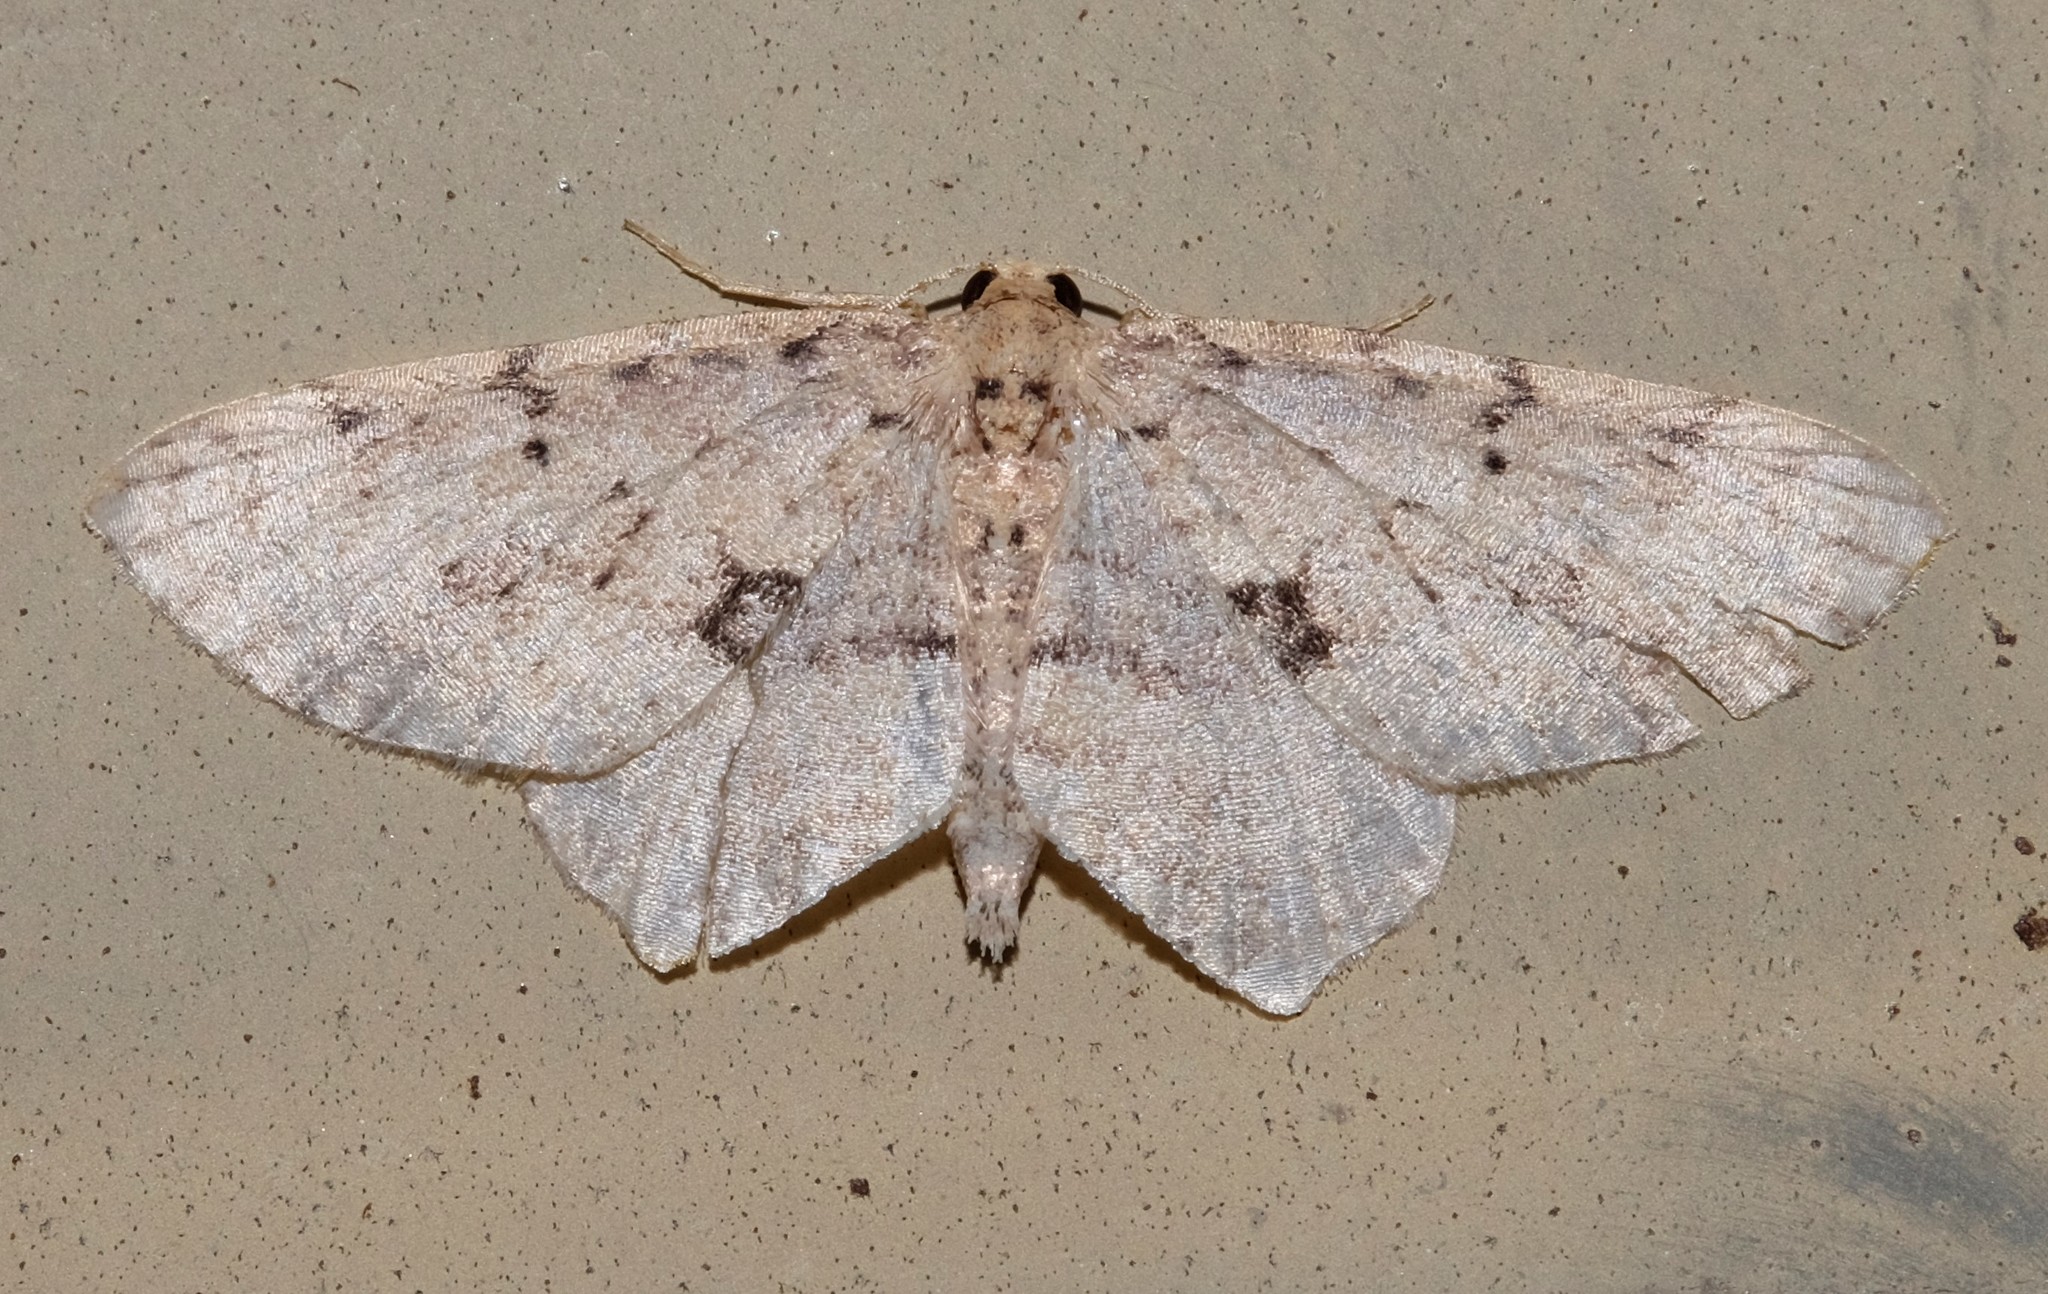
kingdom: Animalia
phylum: Arthropoda
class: Insecta
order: Lepidoptera
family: Geometridae
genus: Poecilasthena
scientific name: Poecilasthena scoliota
